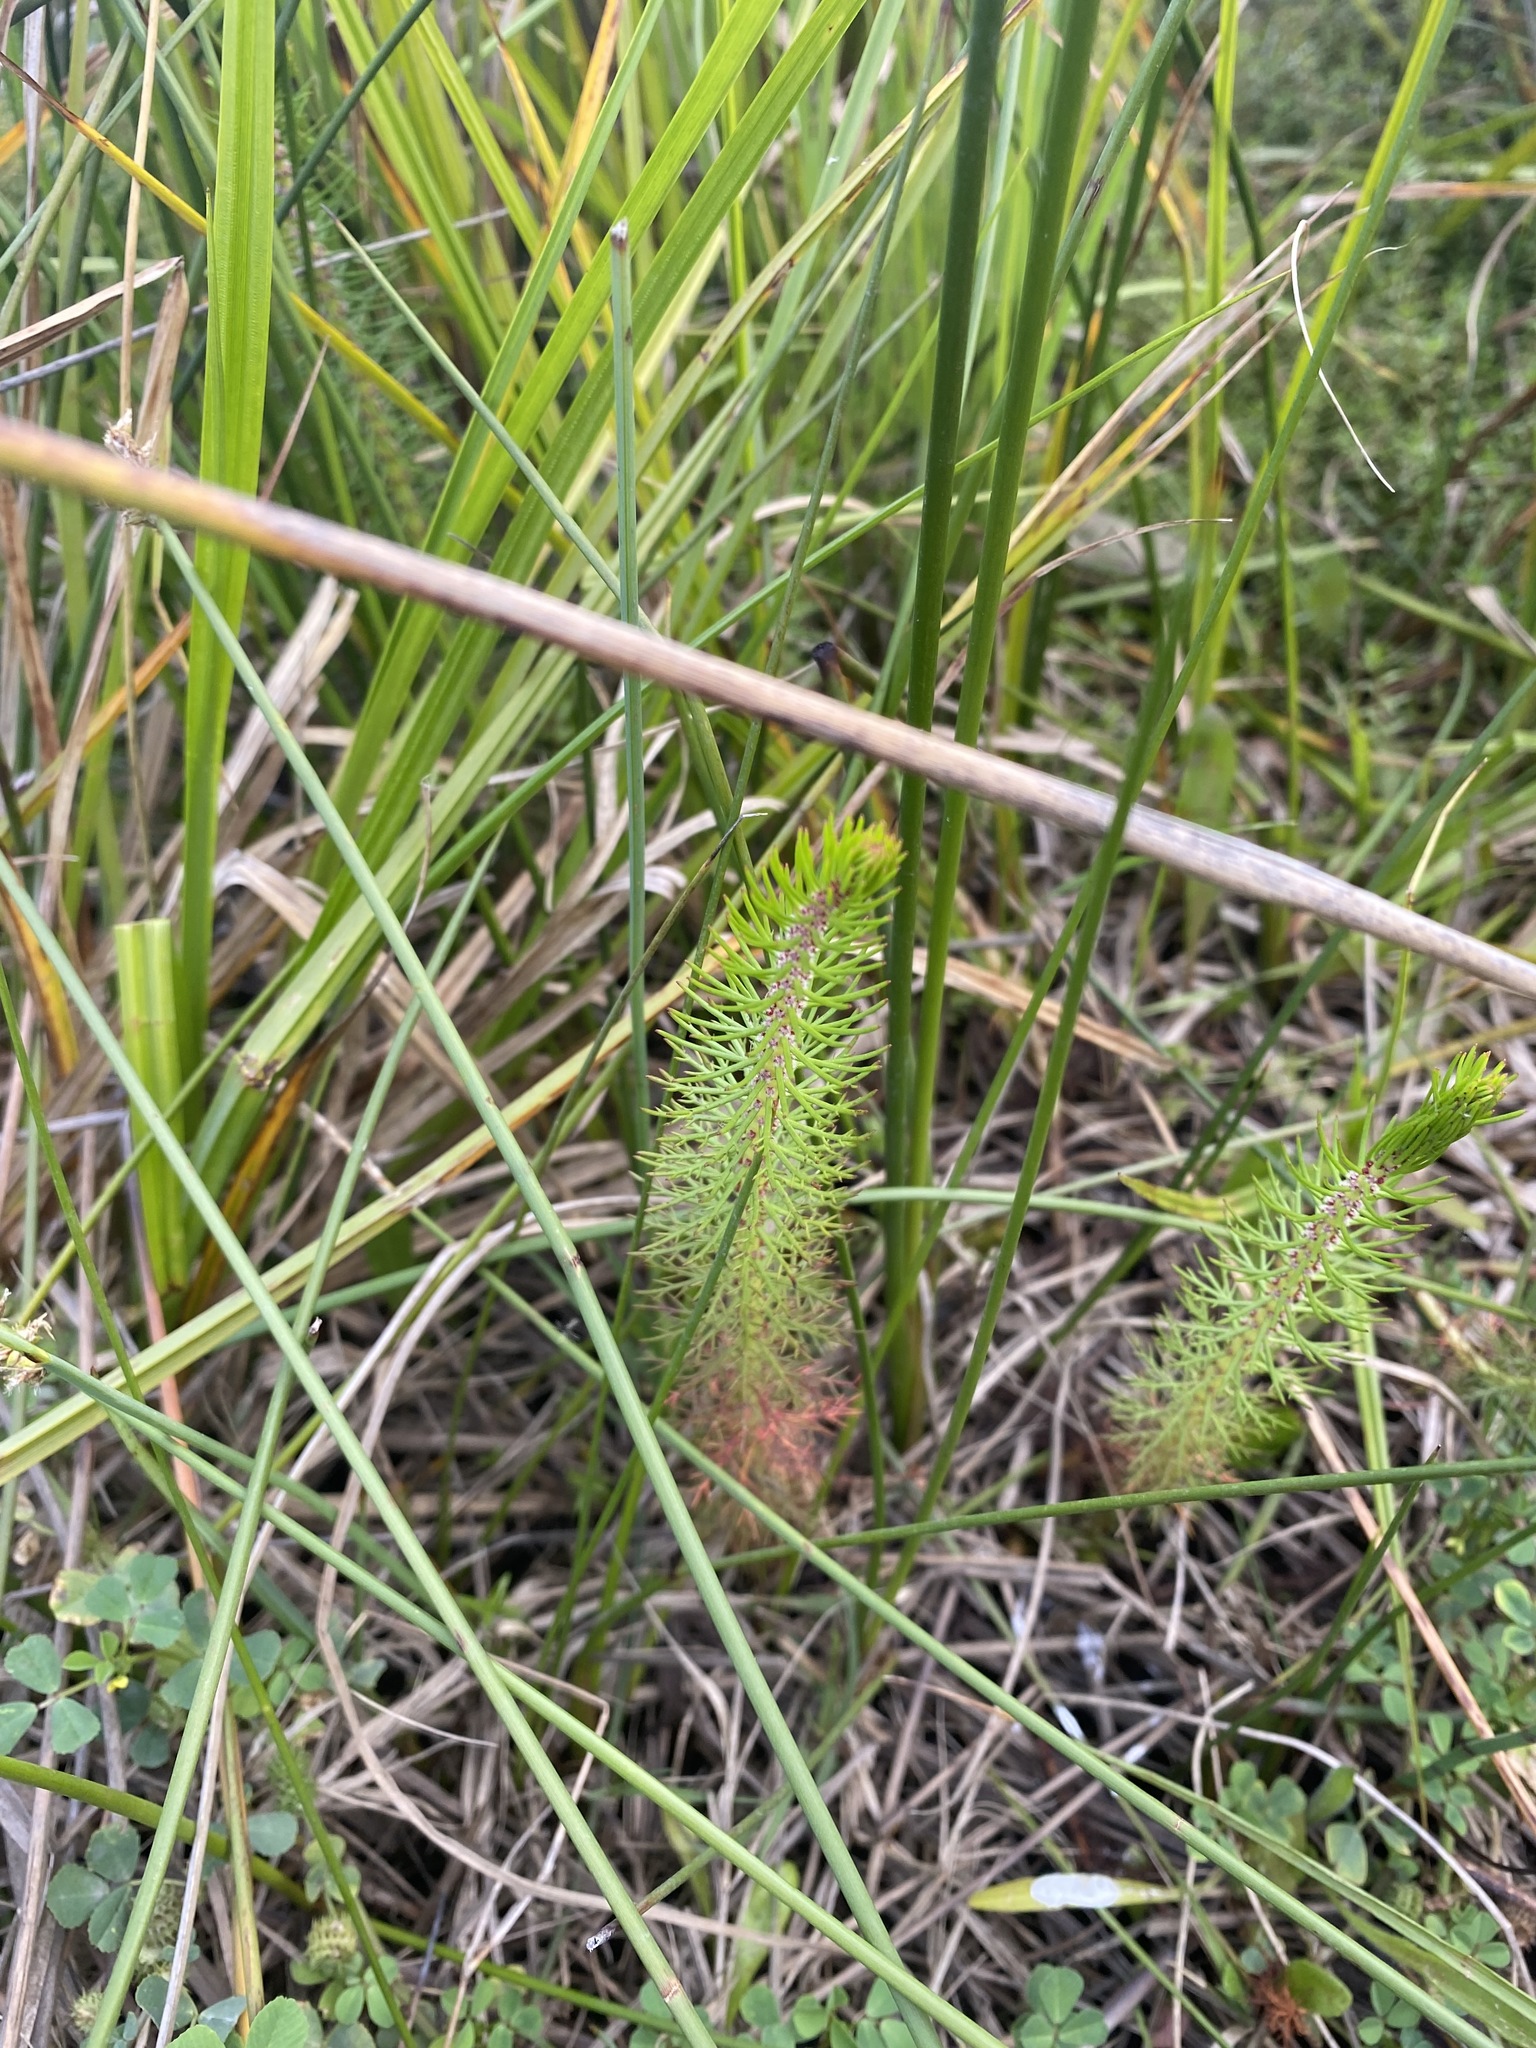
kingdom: Plantae
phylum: Tracheophyta
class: Magnoliopsida
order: Saxifragales
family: Haloragaceae
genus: Myriophyllum
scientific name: Myriophyllum crispatum
